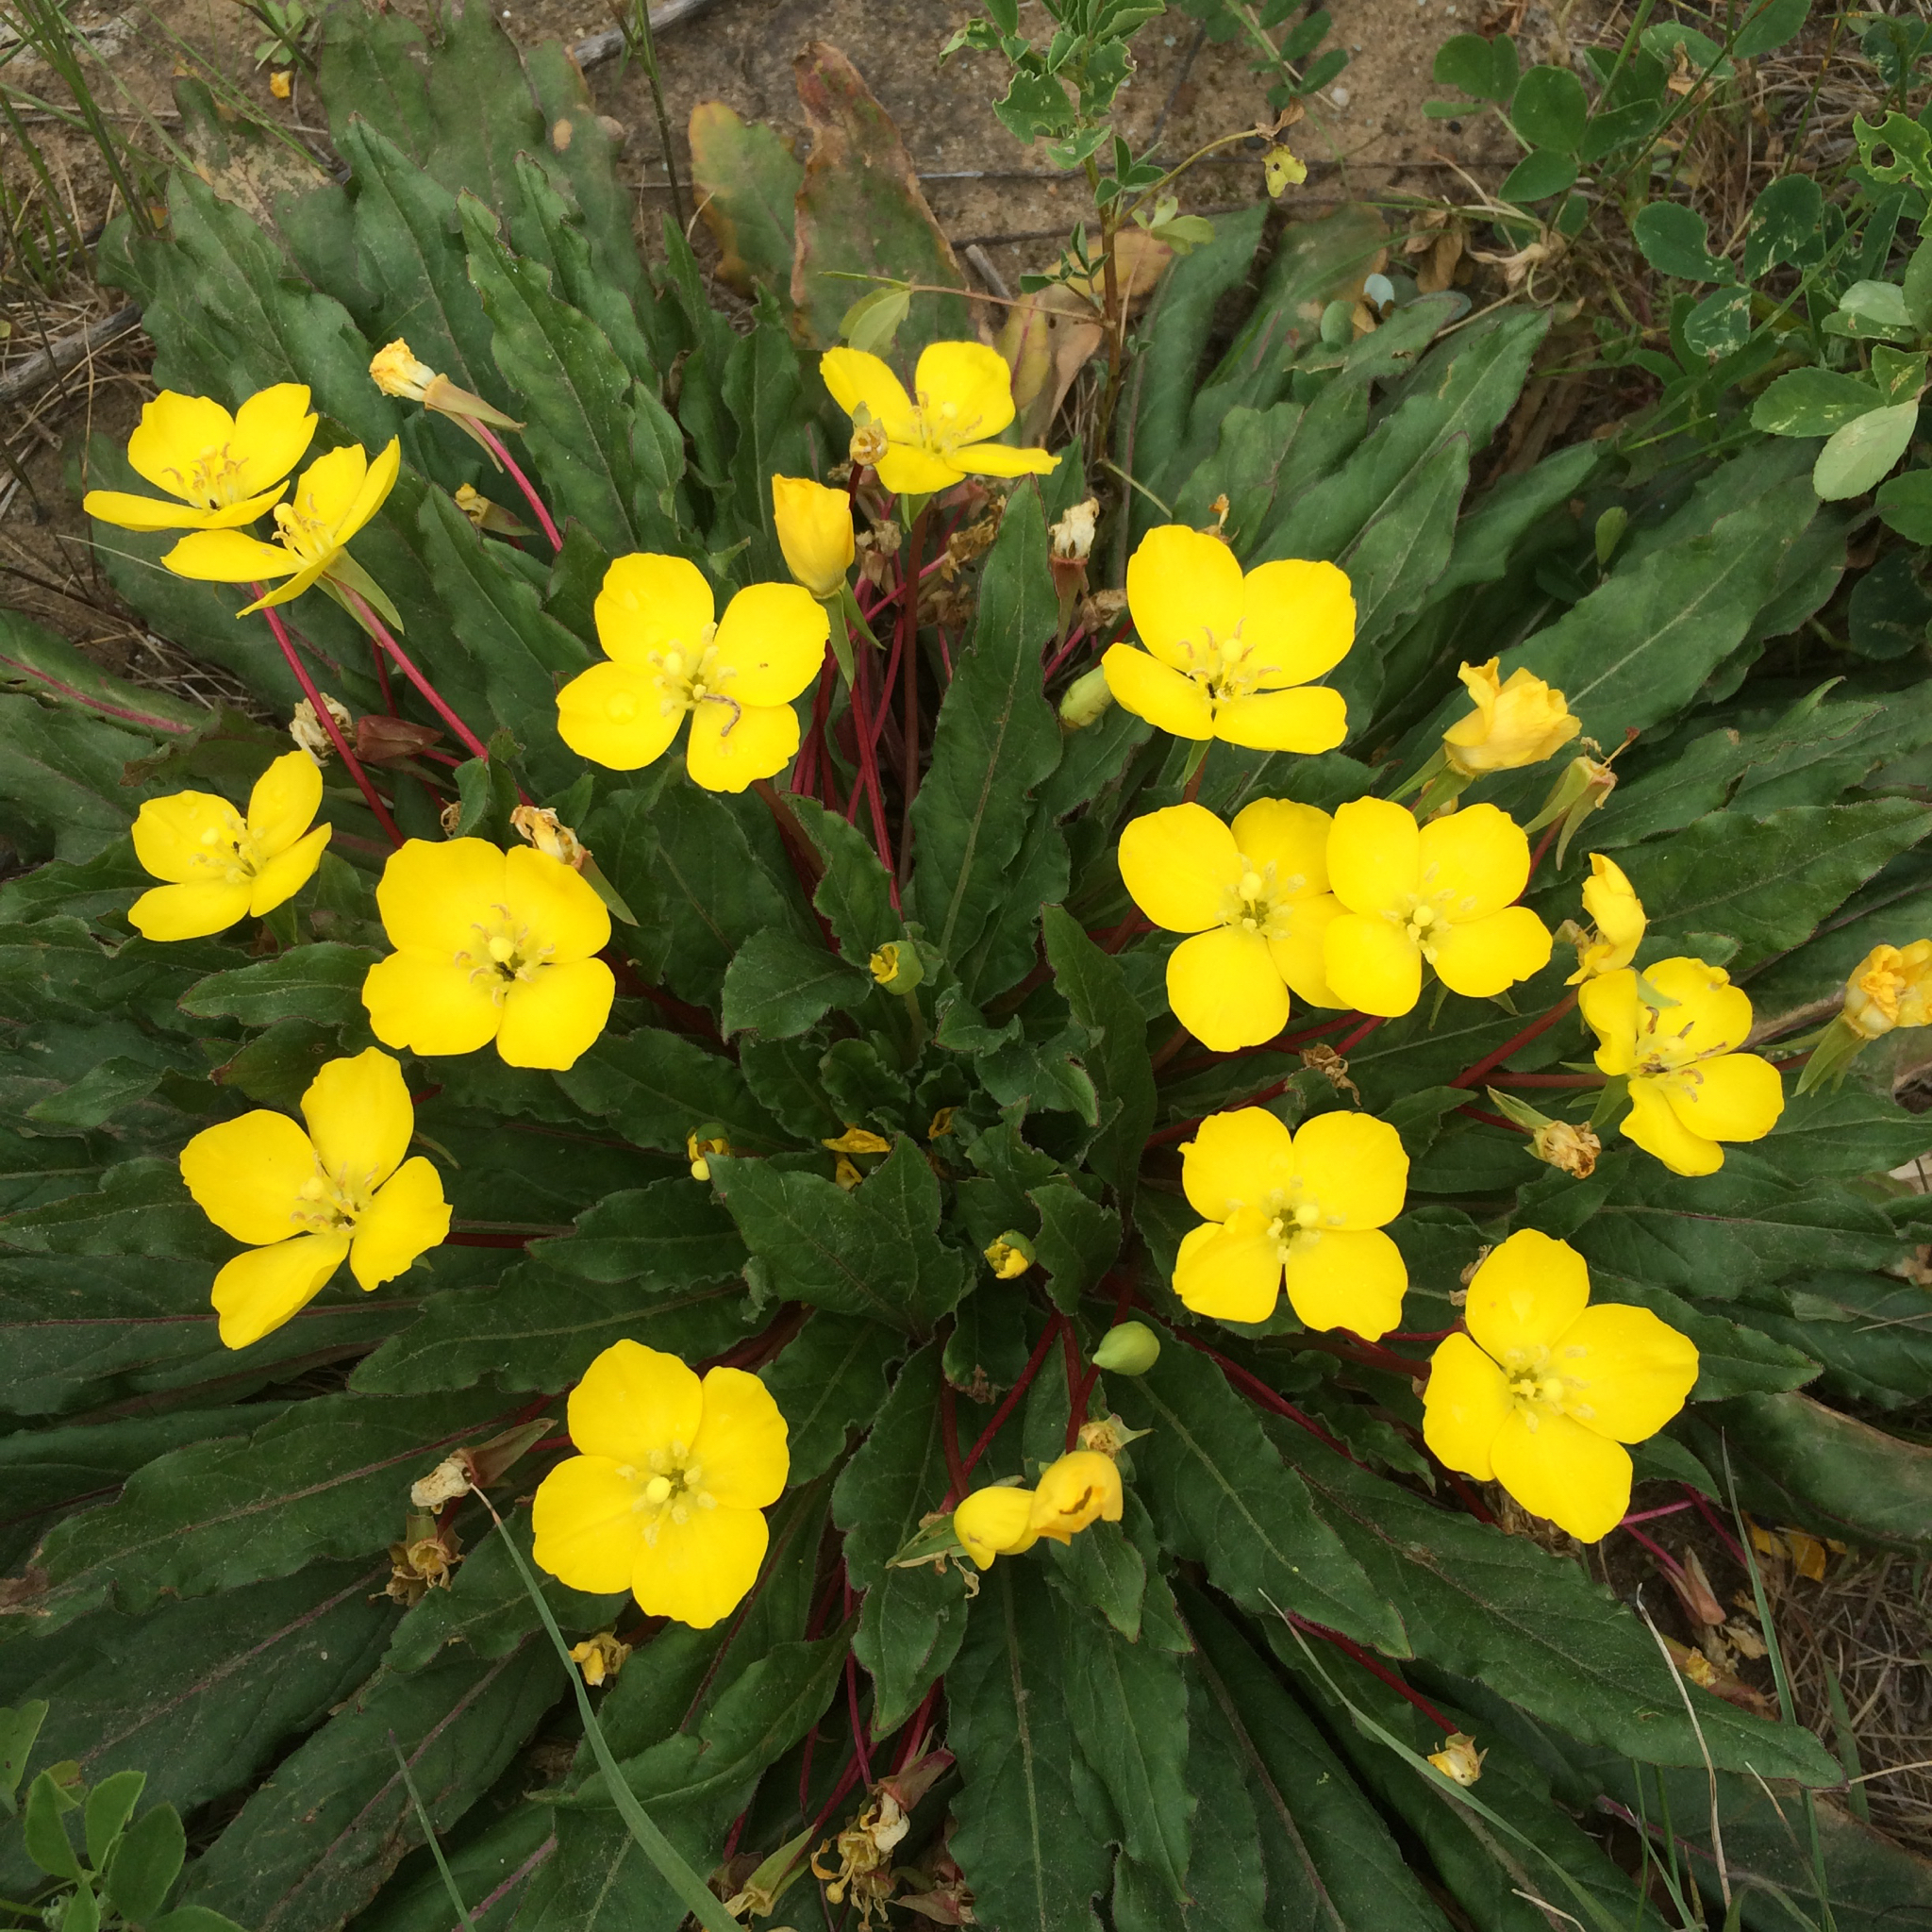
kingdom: Plantae
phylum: Tracheophyta
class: Magnoliopsida
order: Myrtales
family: Onagraceae
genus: Taraxia
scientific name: Taraxia ovata
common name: Goldeneggs
